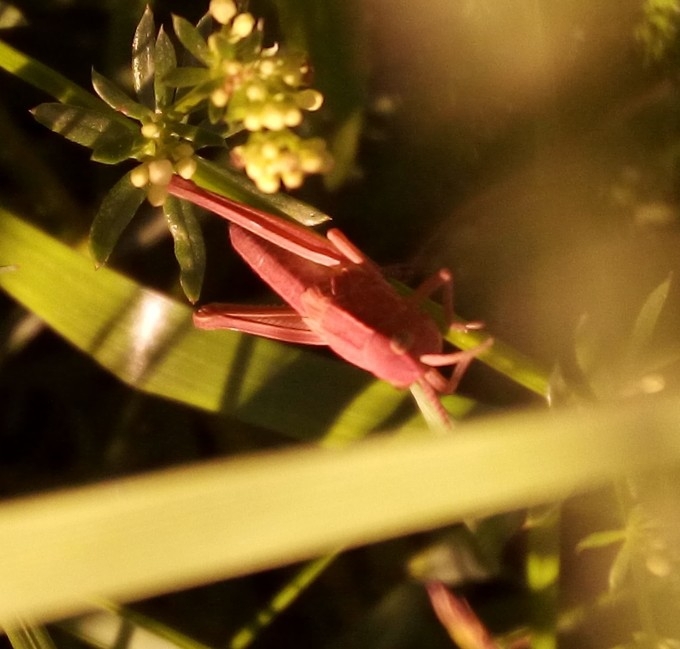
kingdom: Animalia
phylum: Arthropoda
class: Insecta
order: Orthoptera
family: Acrididae
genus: Chrysochraon
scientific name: Chrysochraon dispar
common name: Large gold grasshopper
